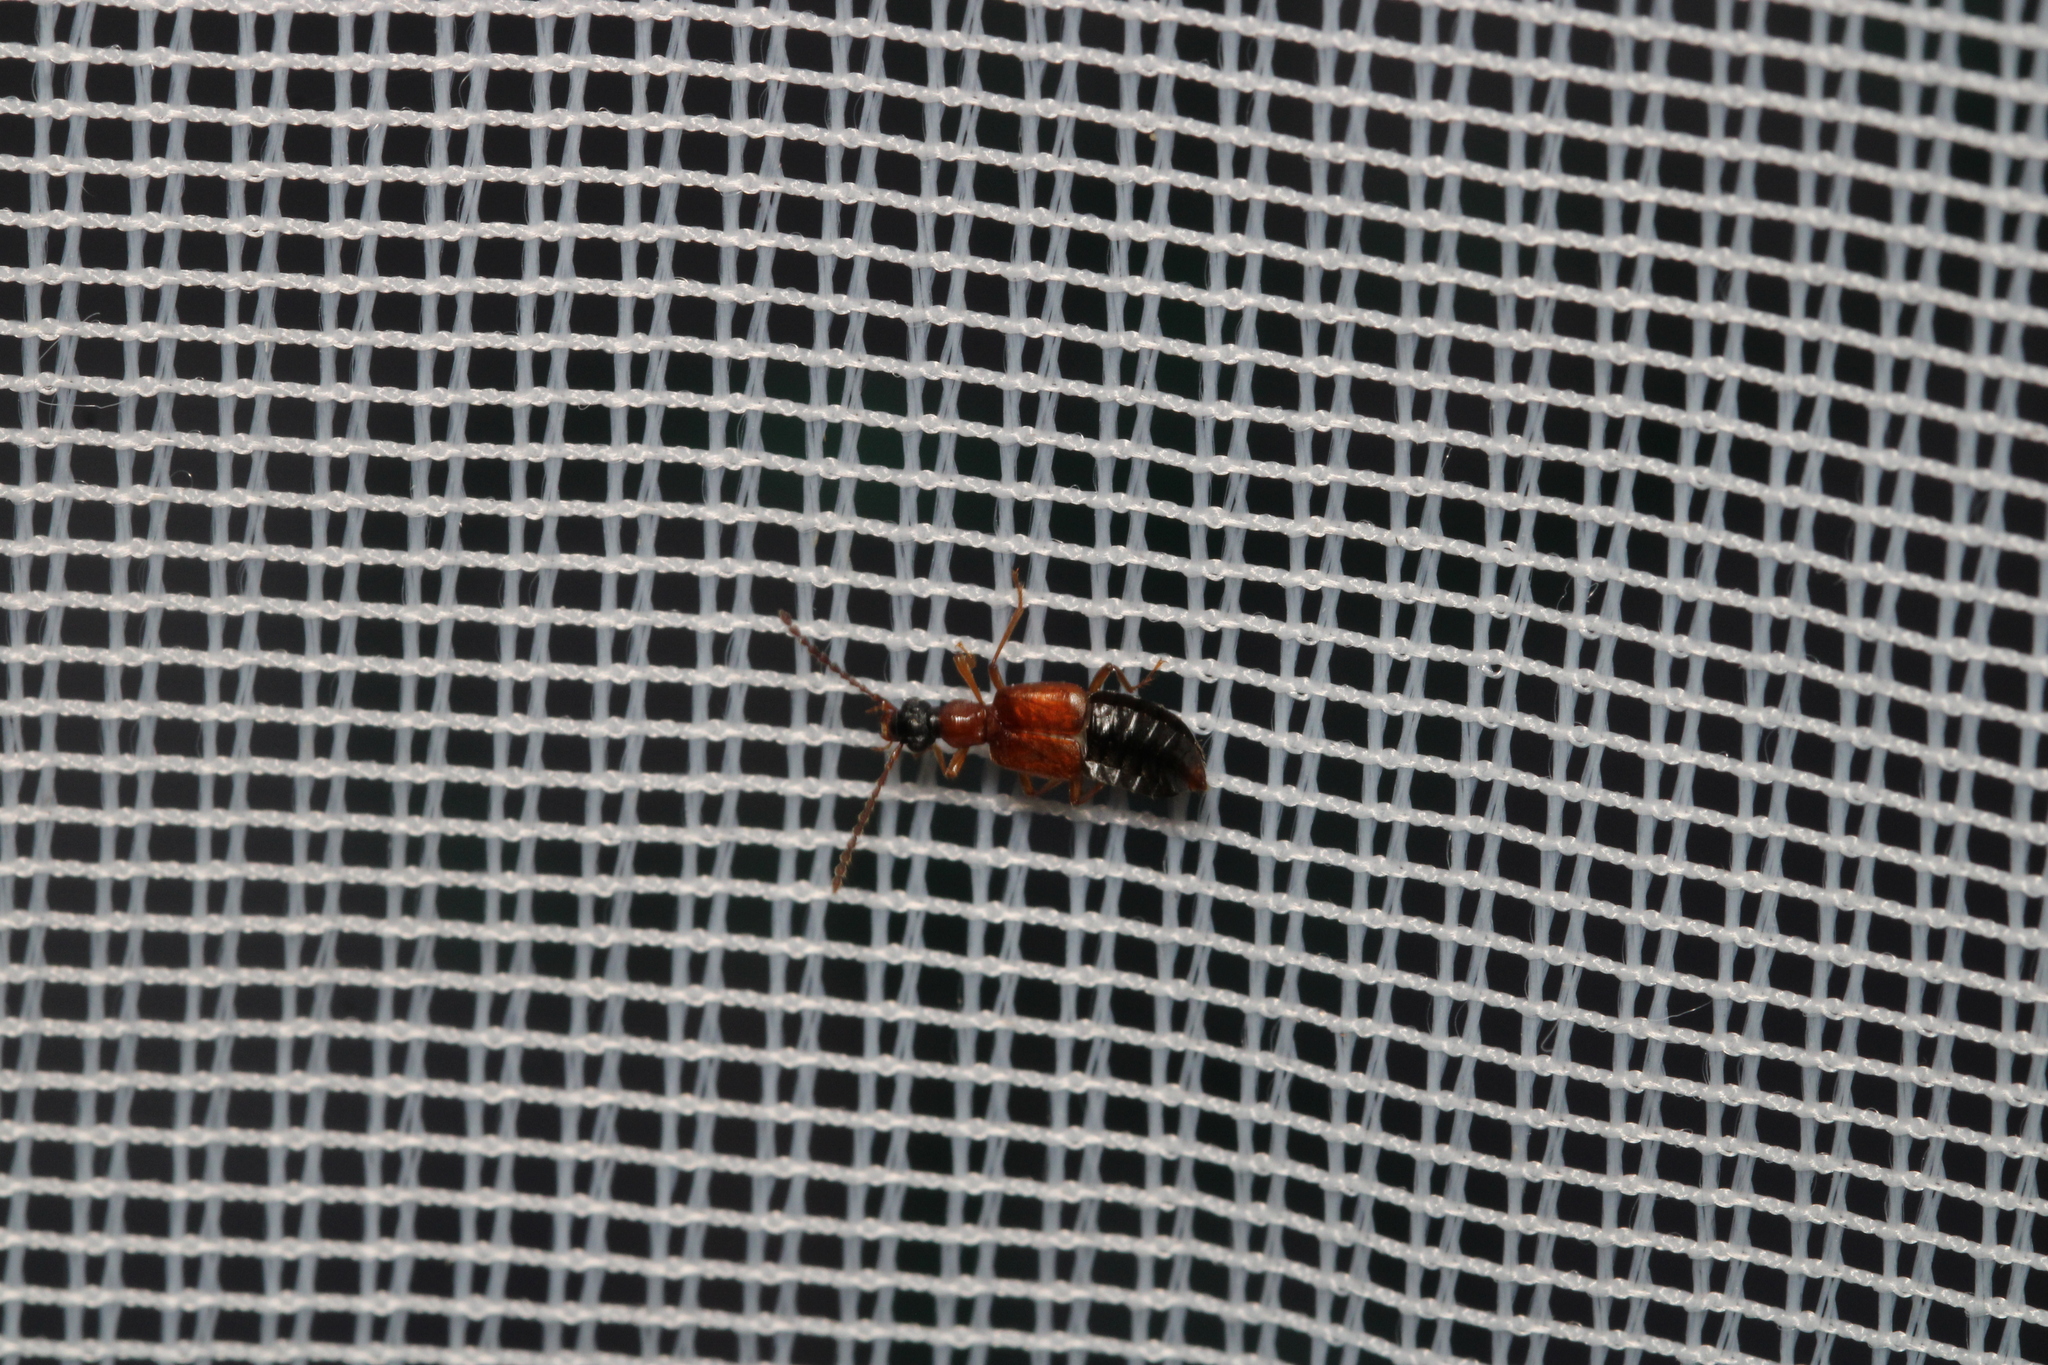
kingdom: Animalia
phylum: Arthropoda
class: Insecta
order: Coleoptera
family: Staphylinidae
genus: Deleaster
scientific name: Deleaster dichrous
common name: Rove beetle
